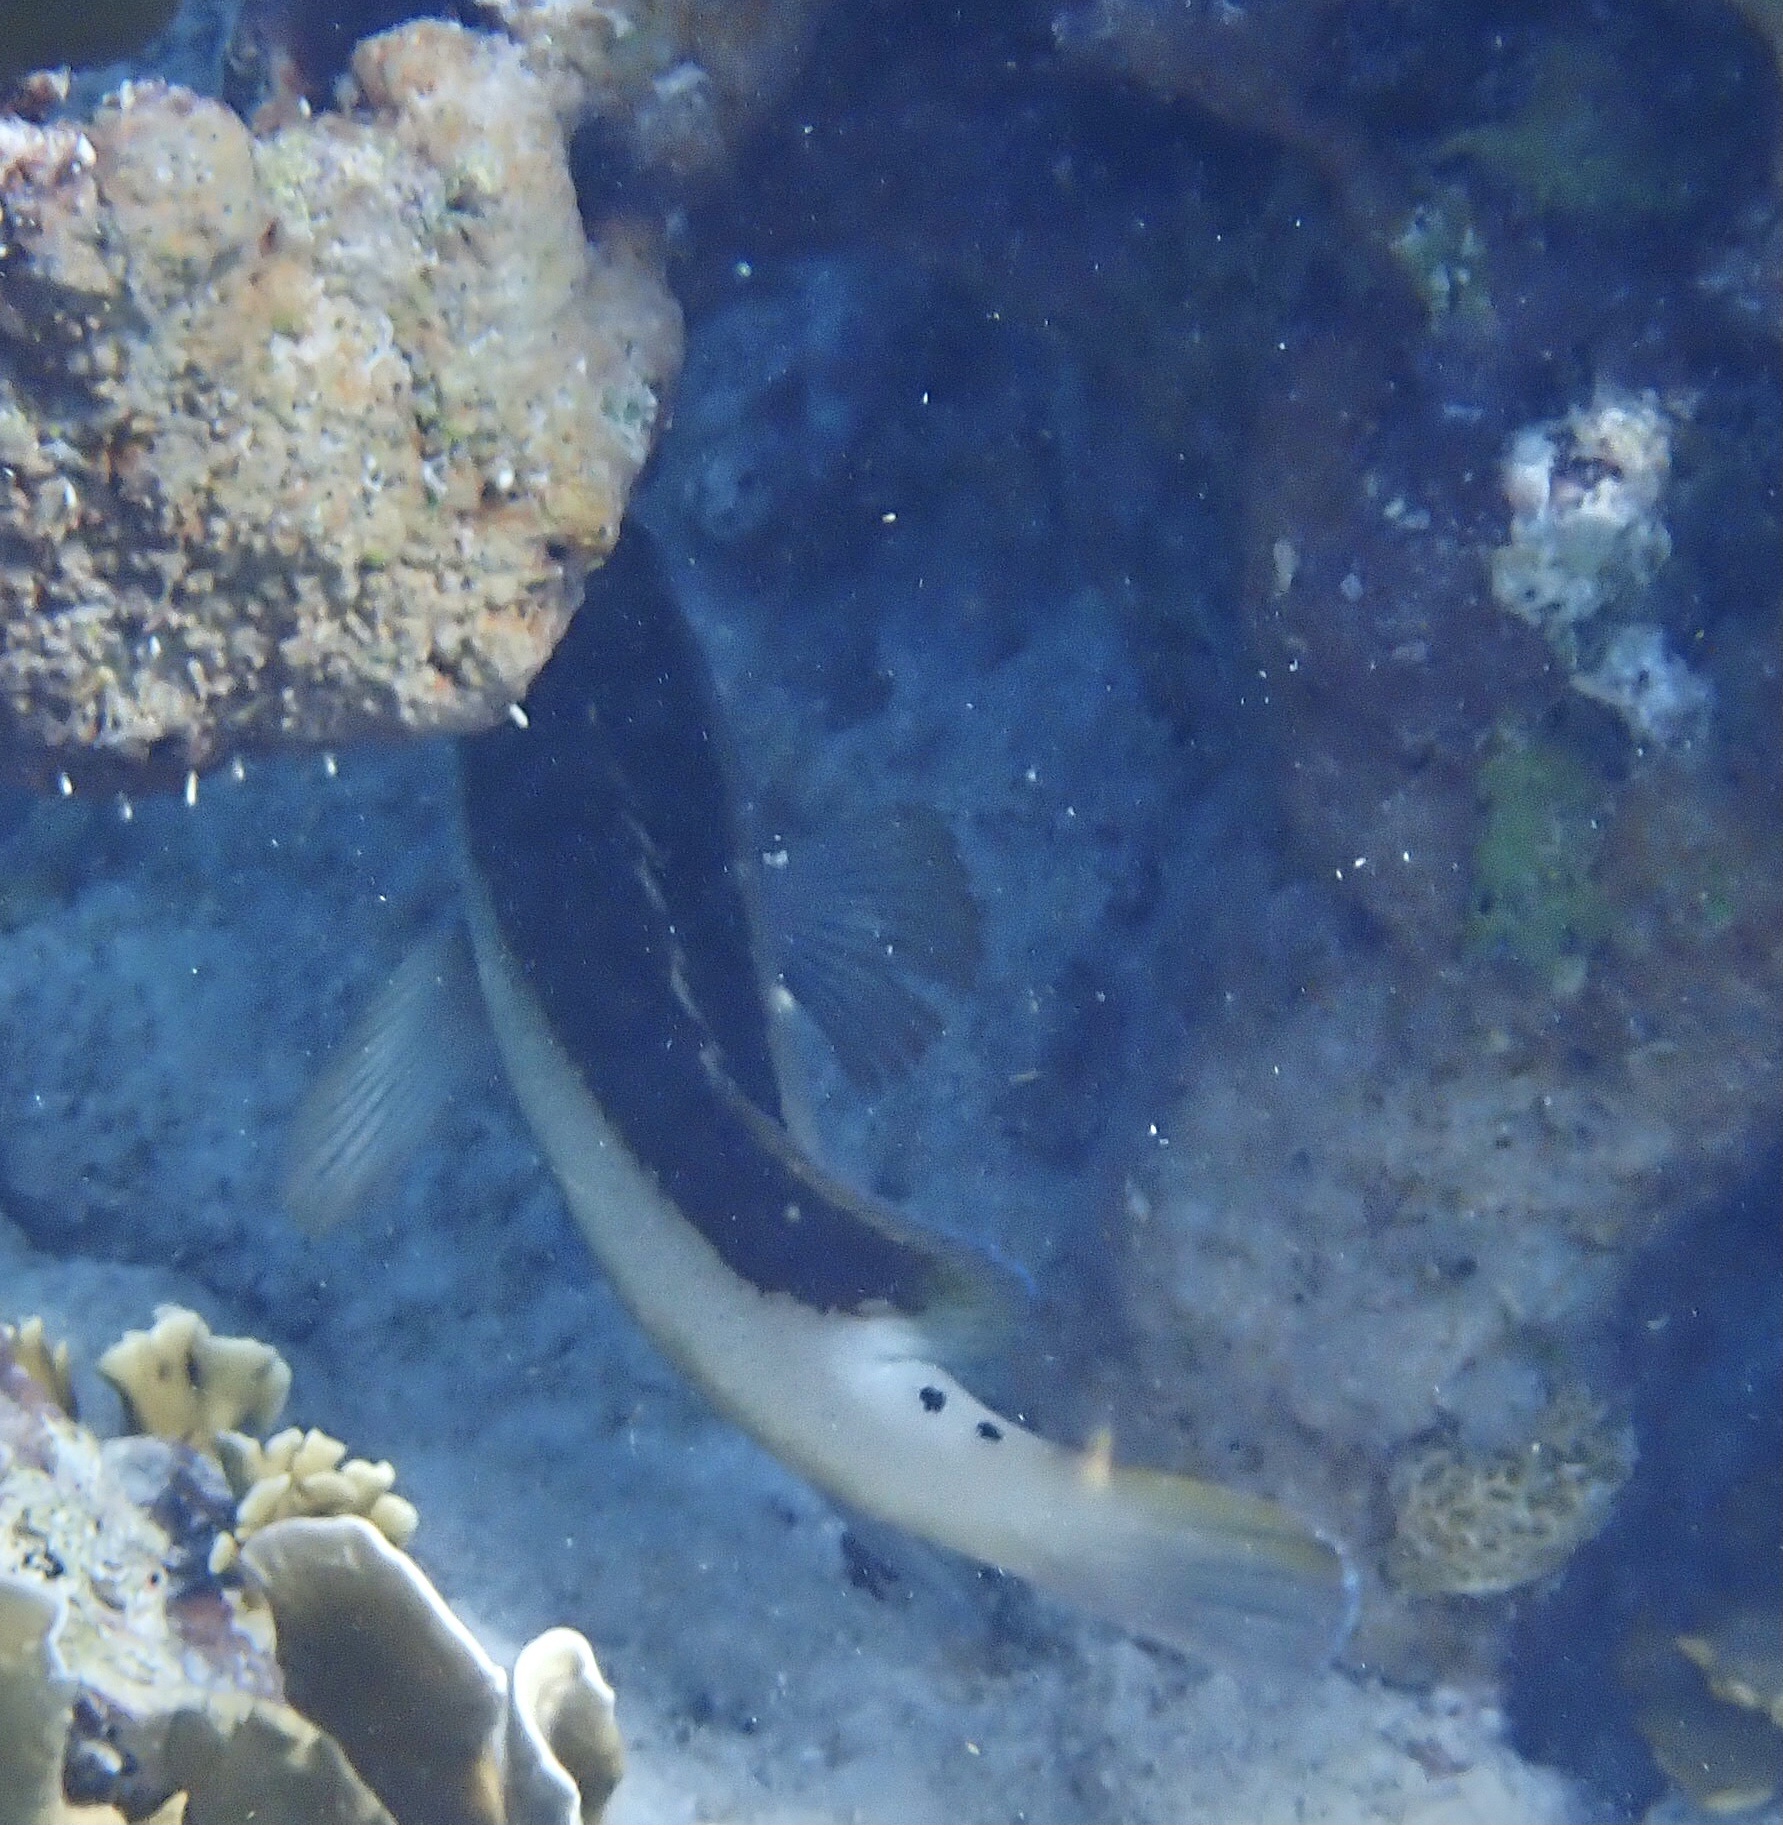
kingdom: Animalia
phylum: Chordata
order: Perciformes
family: Serranidae
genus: Cephalopholis
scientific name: Cephalopholis fulva
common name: Butterfish
